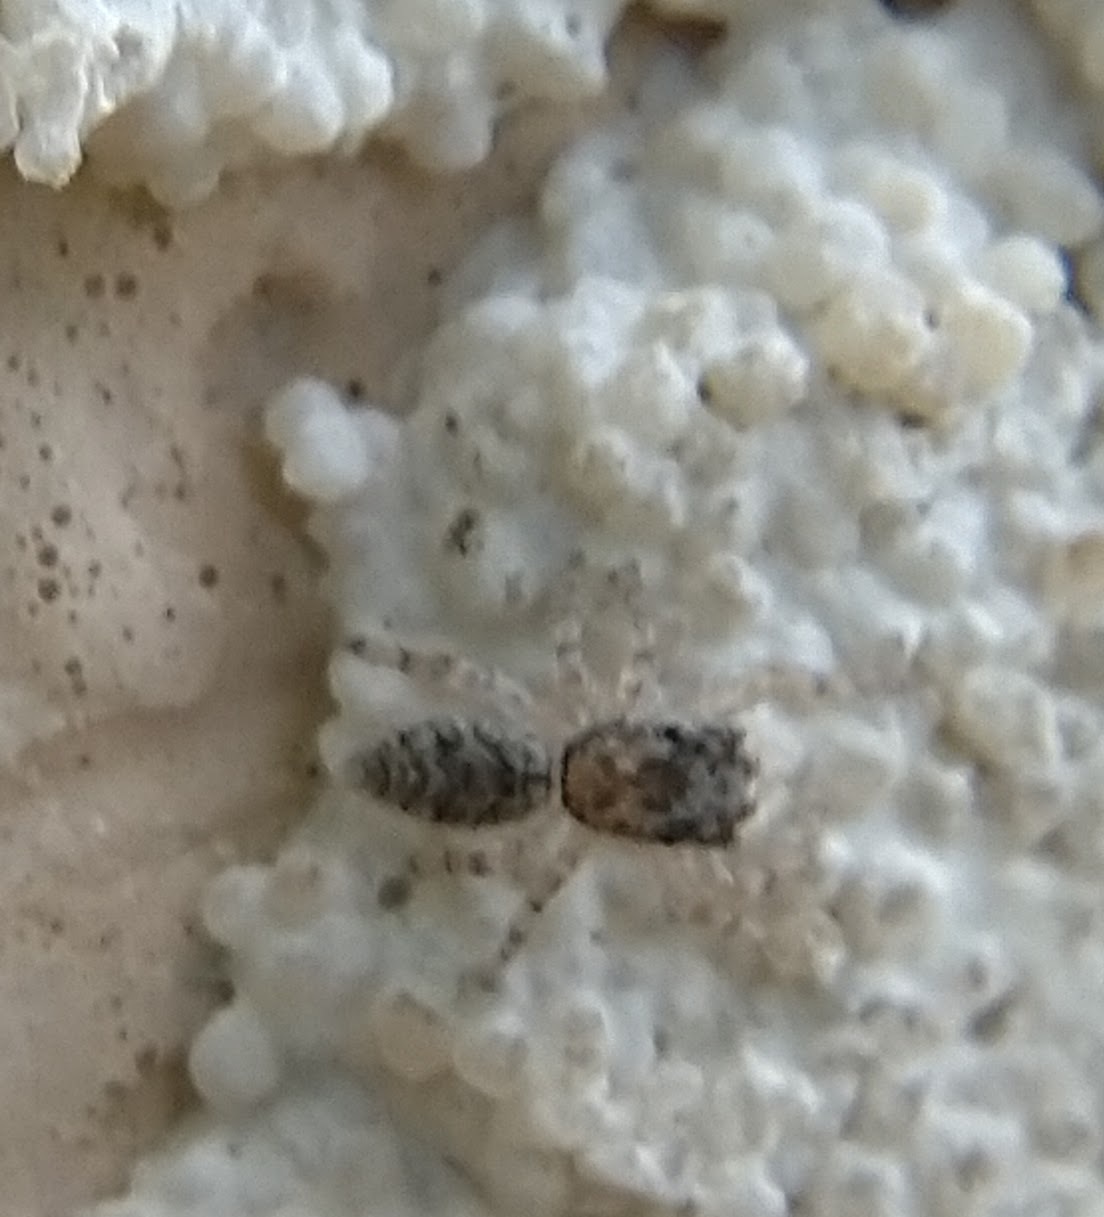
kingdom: Animalia
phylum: Arthropoda
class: Arachnida
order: Araneae
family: Salticidae
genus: Platycryptus
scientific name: Platycryptus undatus
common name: Tan jumping spider
